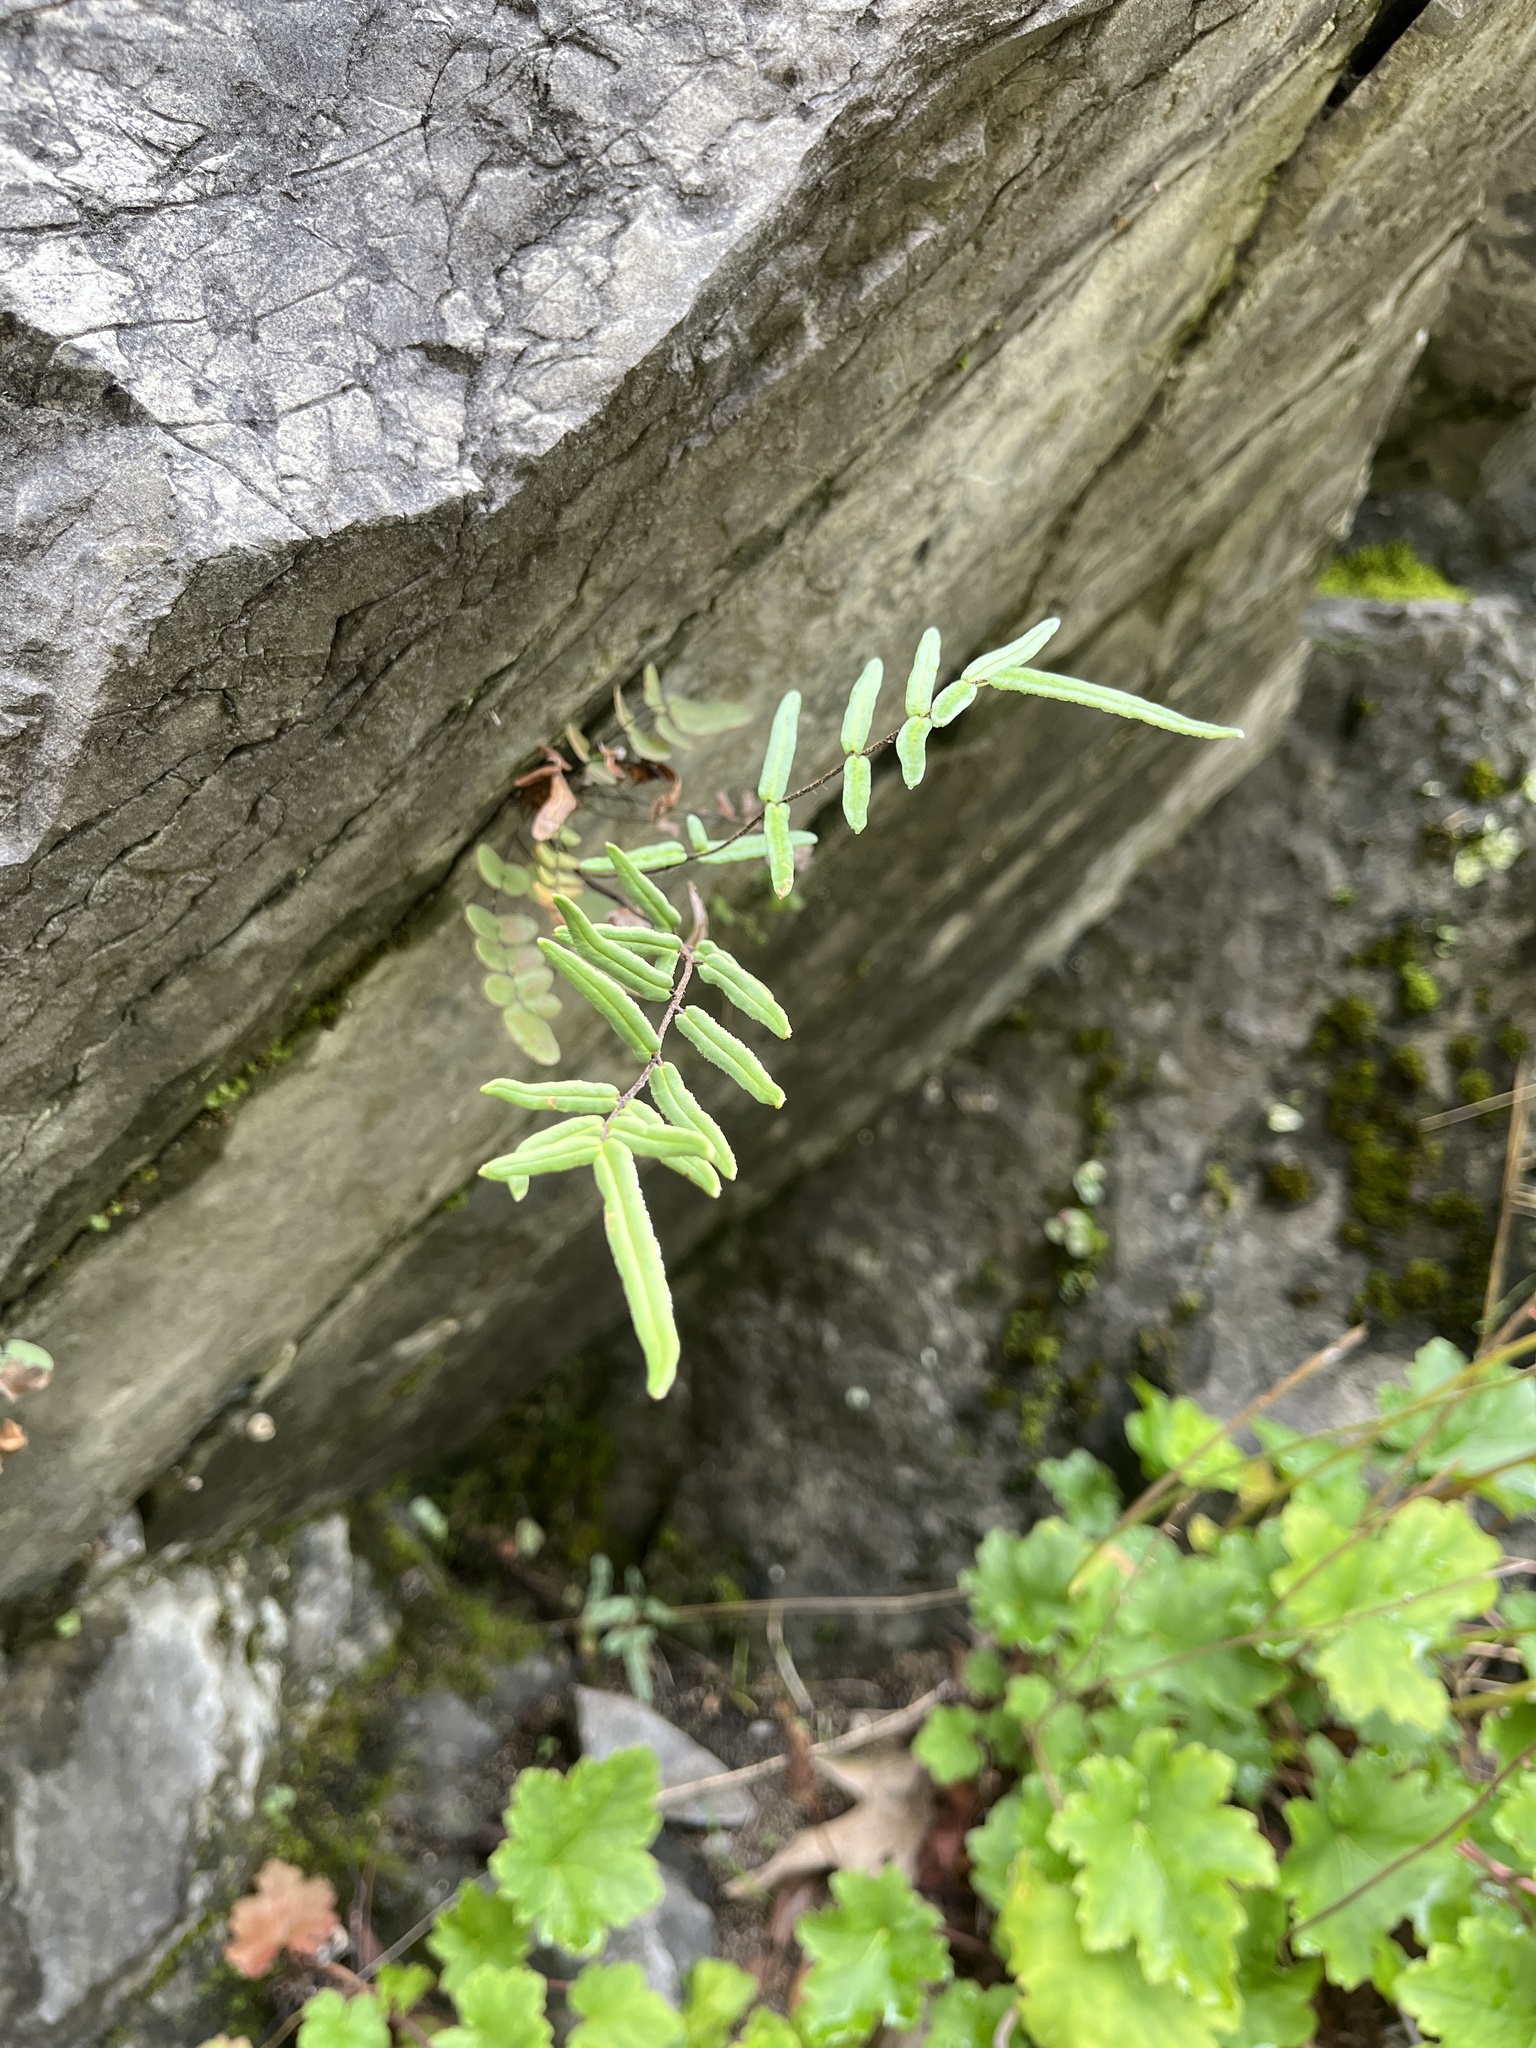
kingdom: Plantae
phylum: Tracheophyta
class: Polypodiopsida
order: Polypodiales
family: Pteridaceae
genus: Pellaea
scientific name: Pellaea atropurpurea
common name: Hairy cliffbrake
